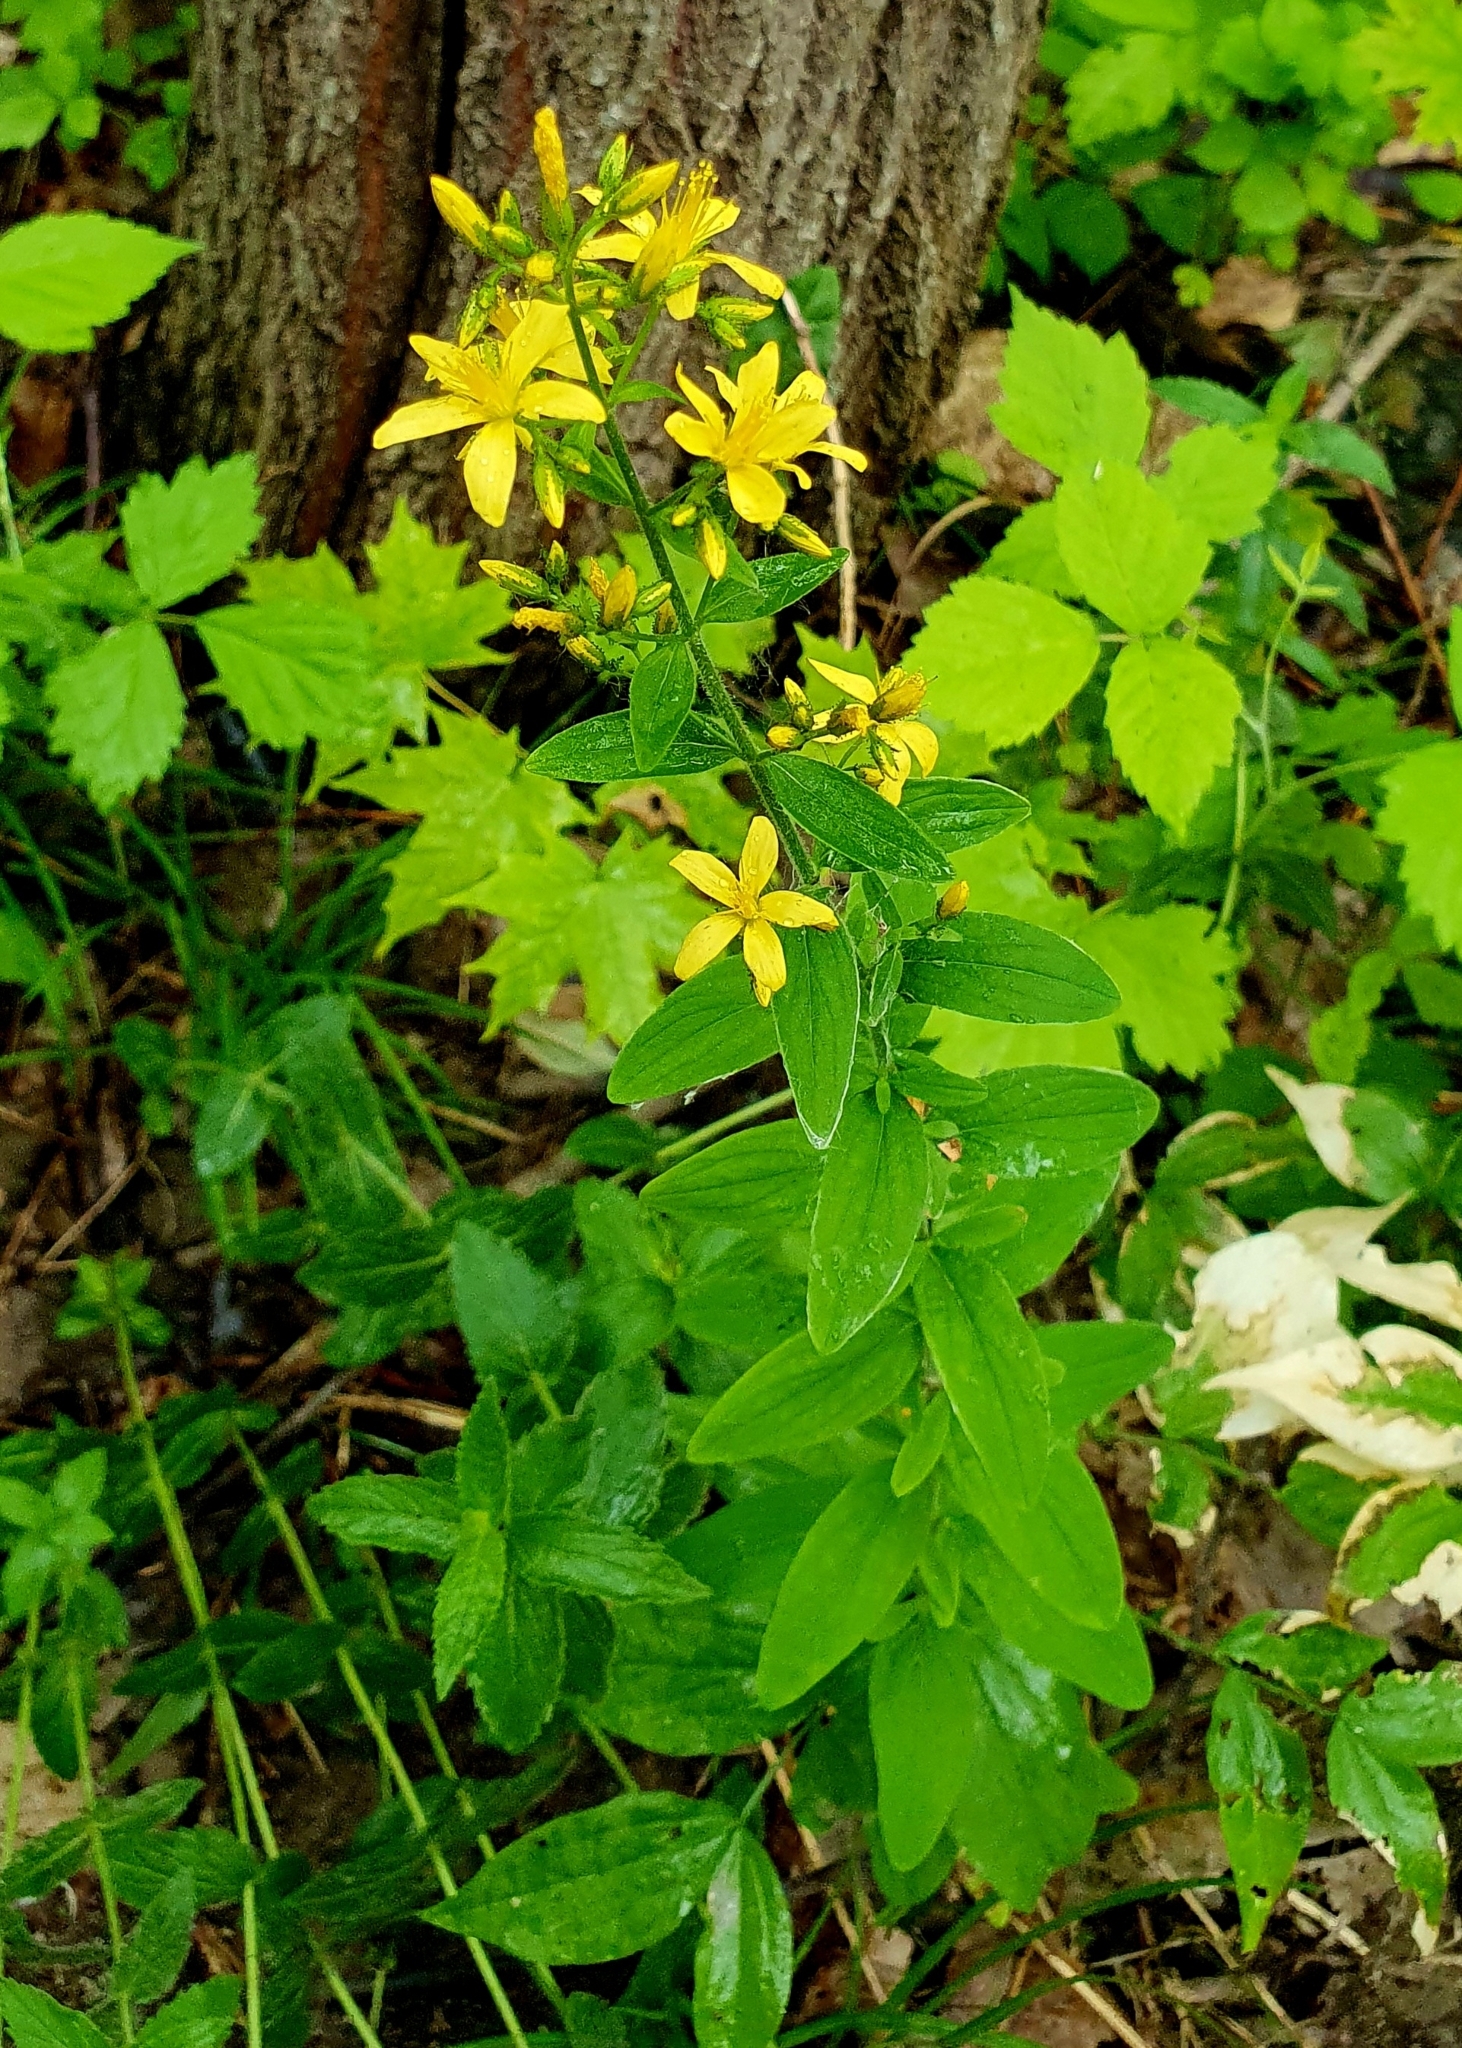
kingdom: Plantae
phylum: Tracheophyta
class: Magnoliopsida
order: Malpighiales
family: Hypericaceae
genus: Hypericum
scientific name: Hypericum hirsutum
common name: Hairy st. john's-wort
